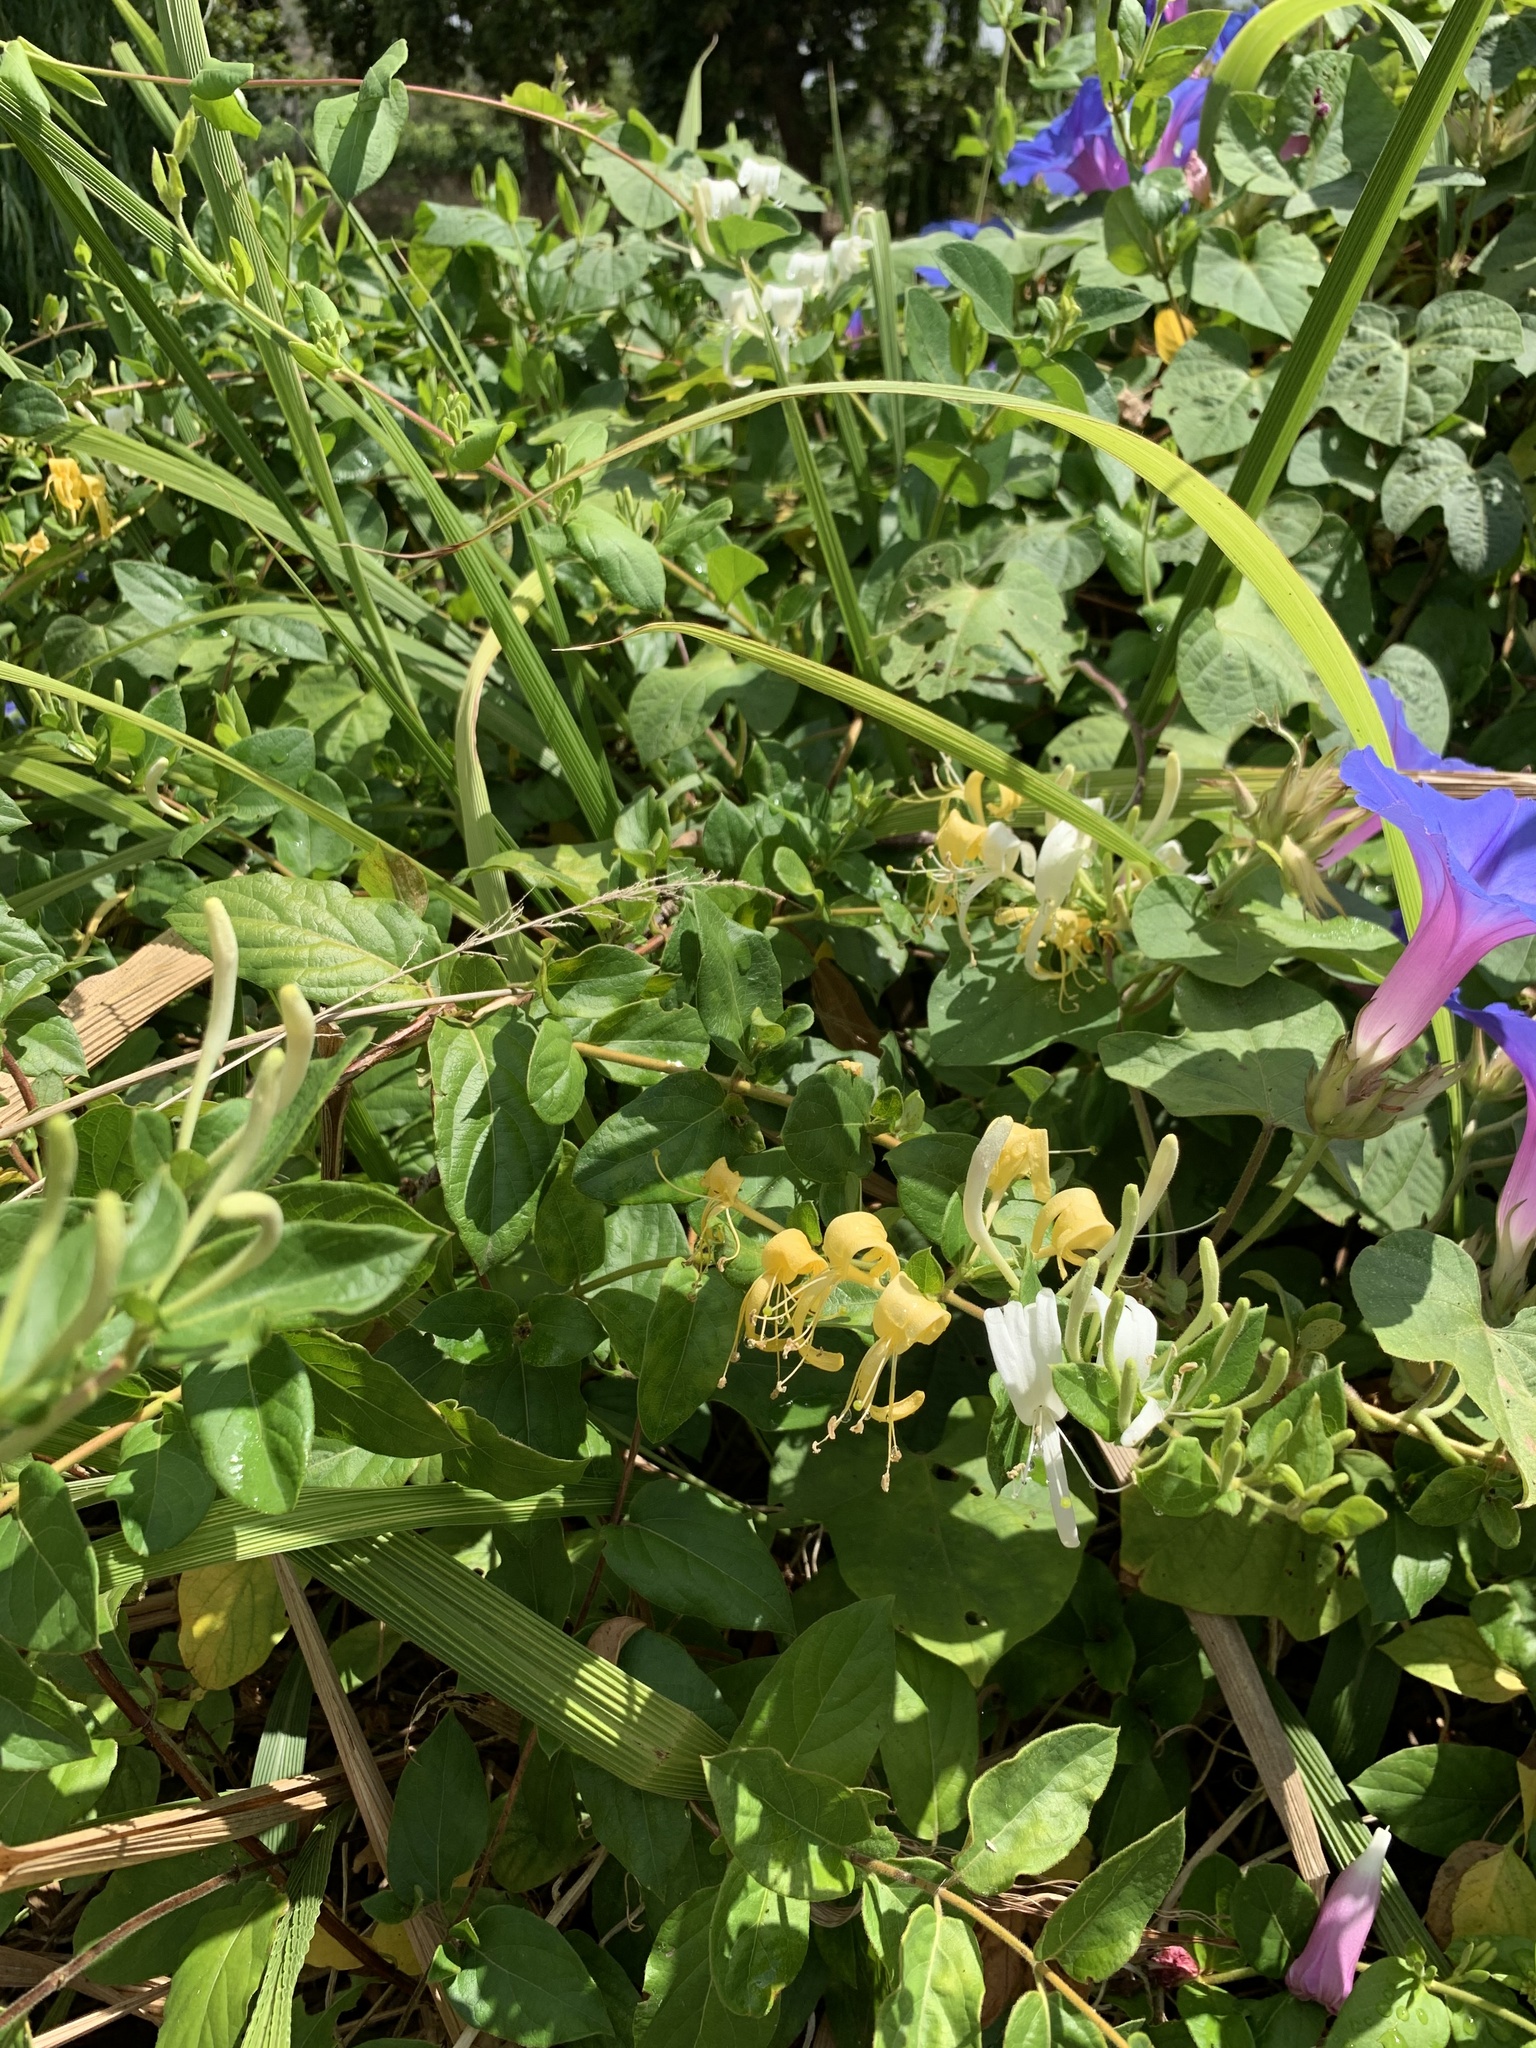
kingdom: Plantae
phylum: Tracheophyta
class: Magnoliopsida
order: Dipsacales
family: Caprifoliaceae
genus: Lonicera
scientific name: Lonicera japonica
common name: Japanese honeysuckle
